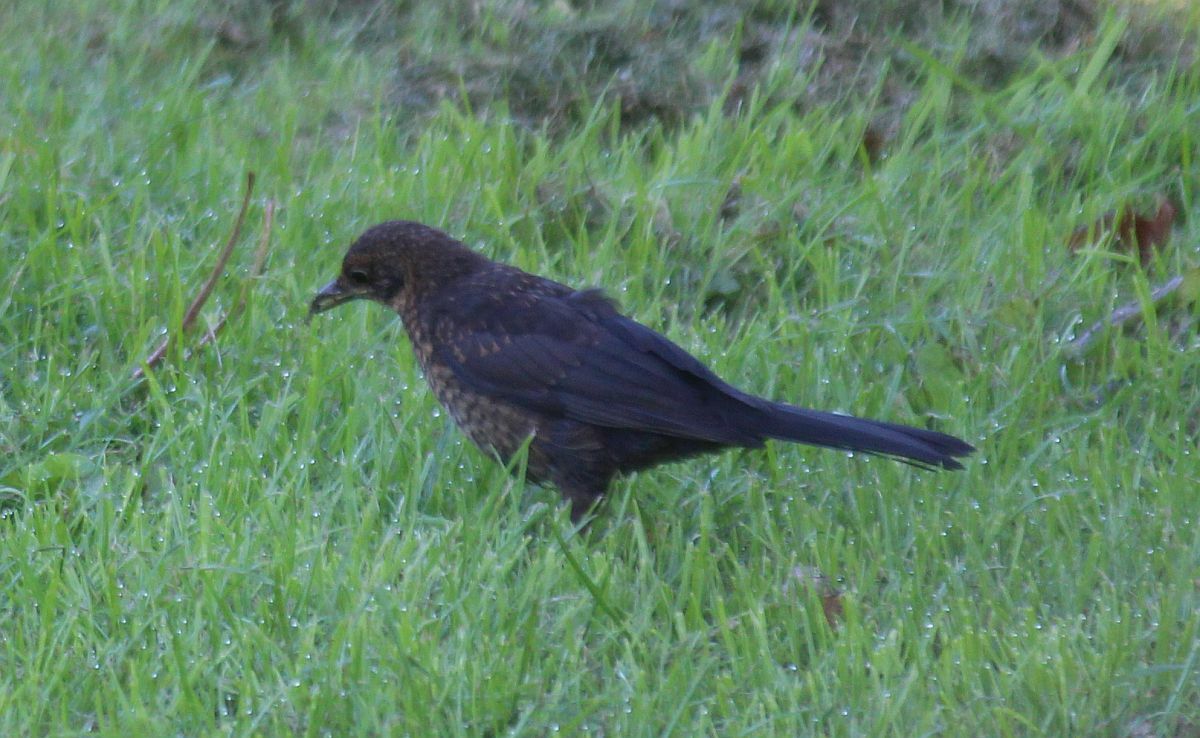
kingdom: Animalia
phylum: Chordata
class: Aves
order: Passeriformes
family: Turdidae
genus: Turdus
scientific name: Turdus merula
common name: Common blackbird
